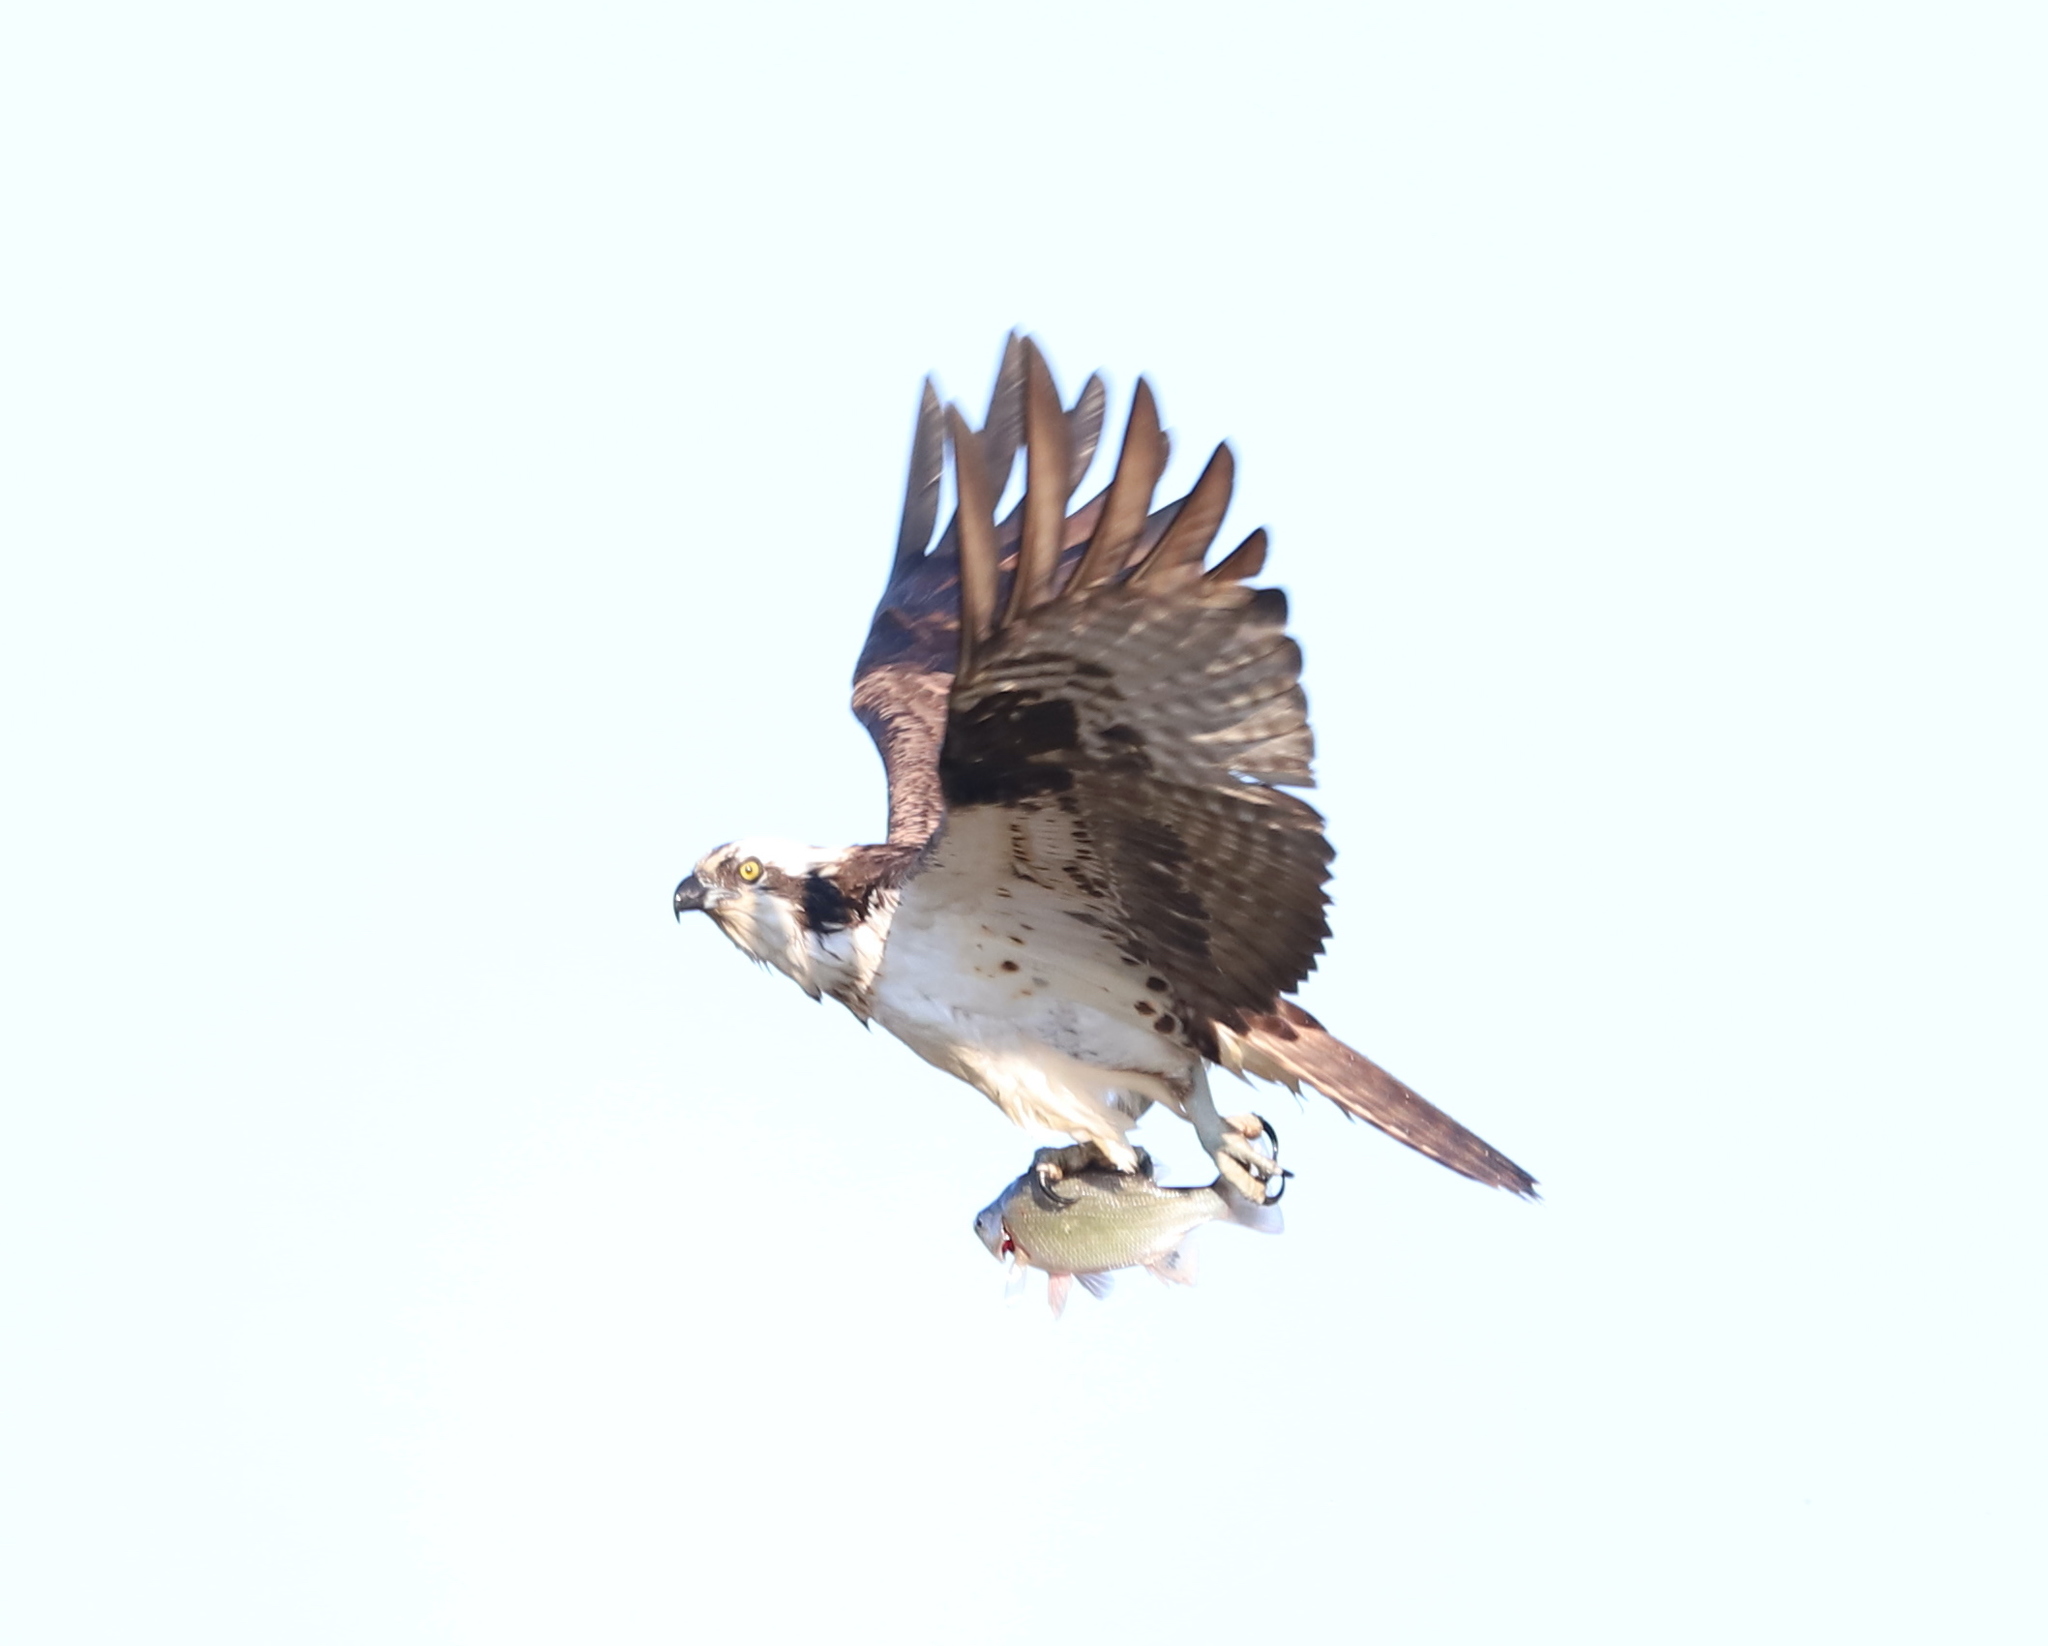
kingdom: Animalia
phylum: Chordata
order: Perciformes
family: Moronidae
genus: Morone
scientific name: Morone americana
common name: White perch
